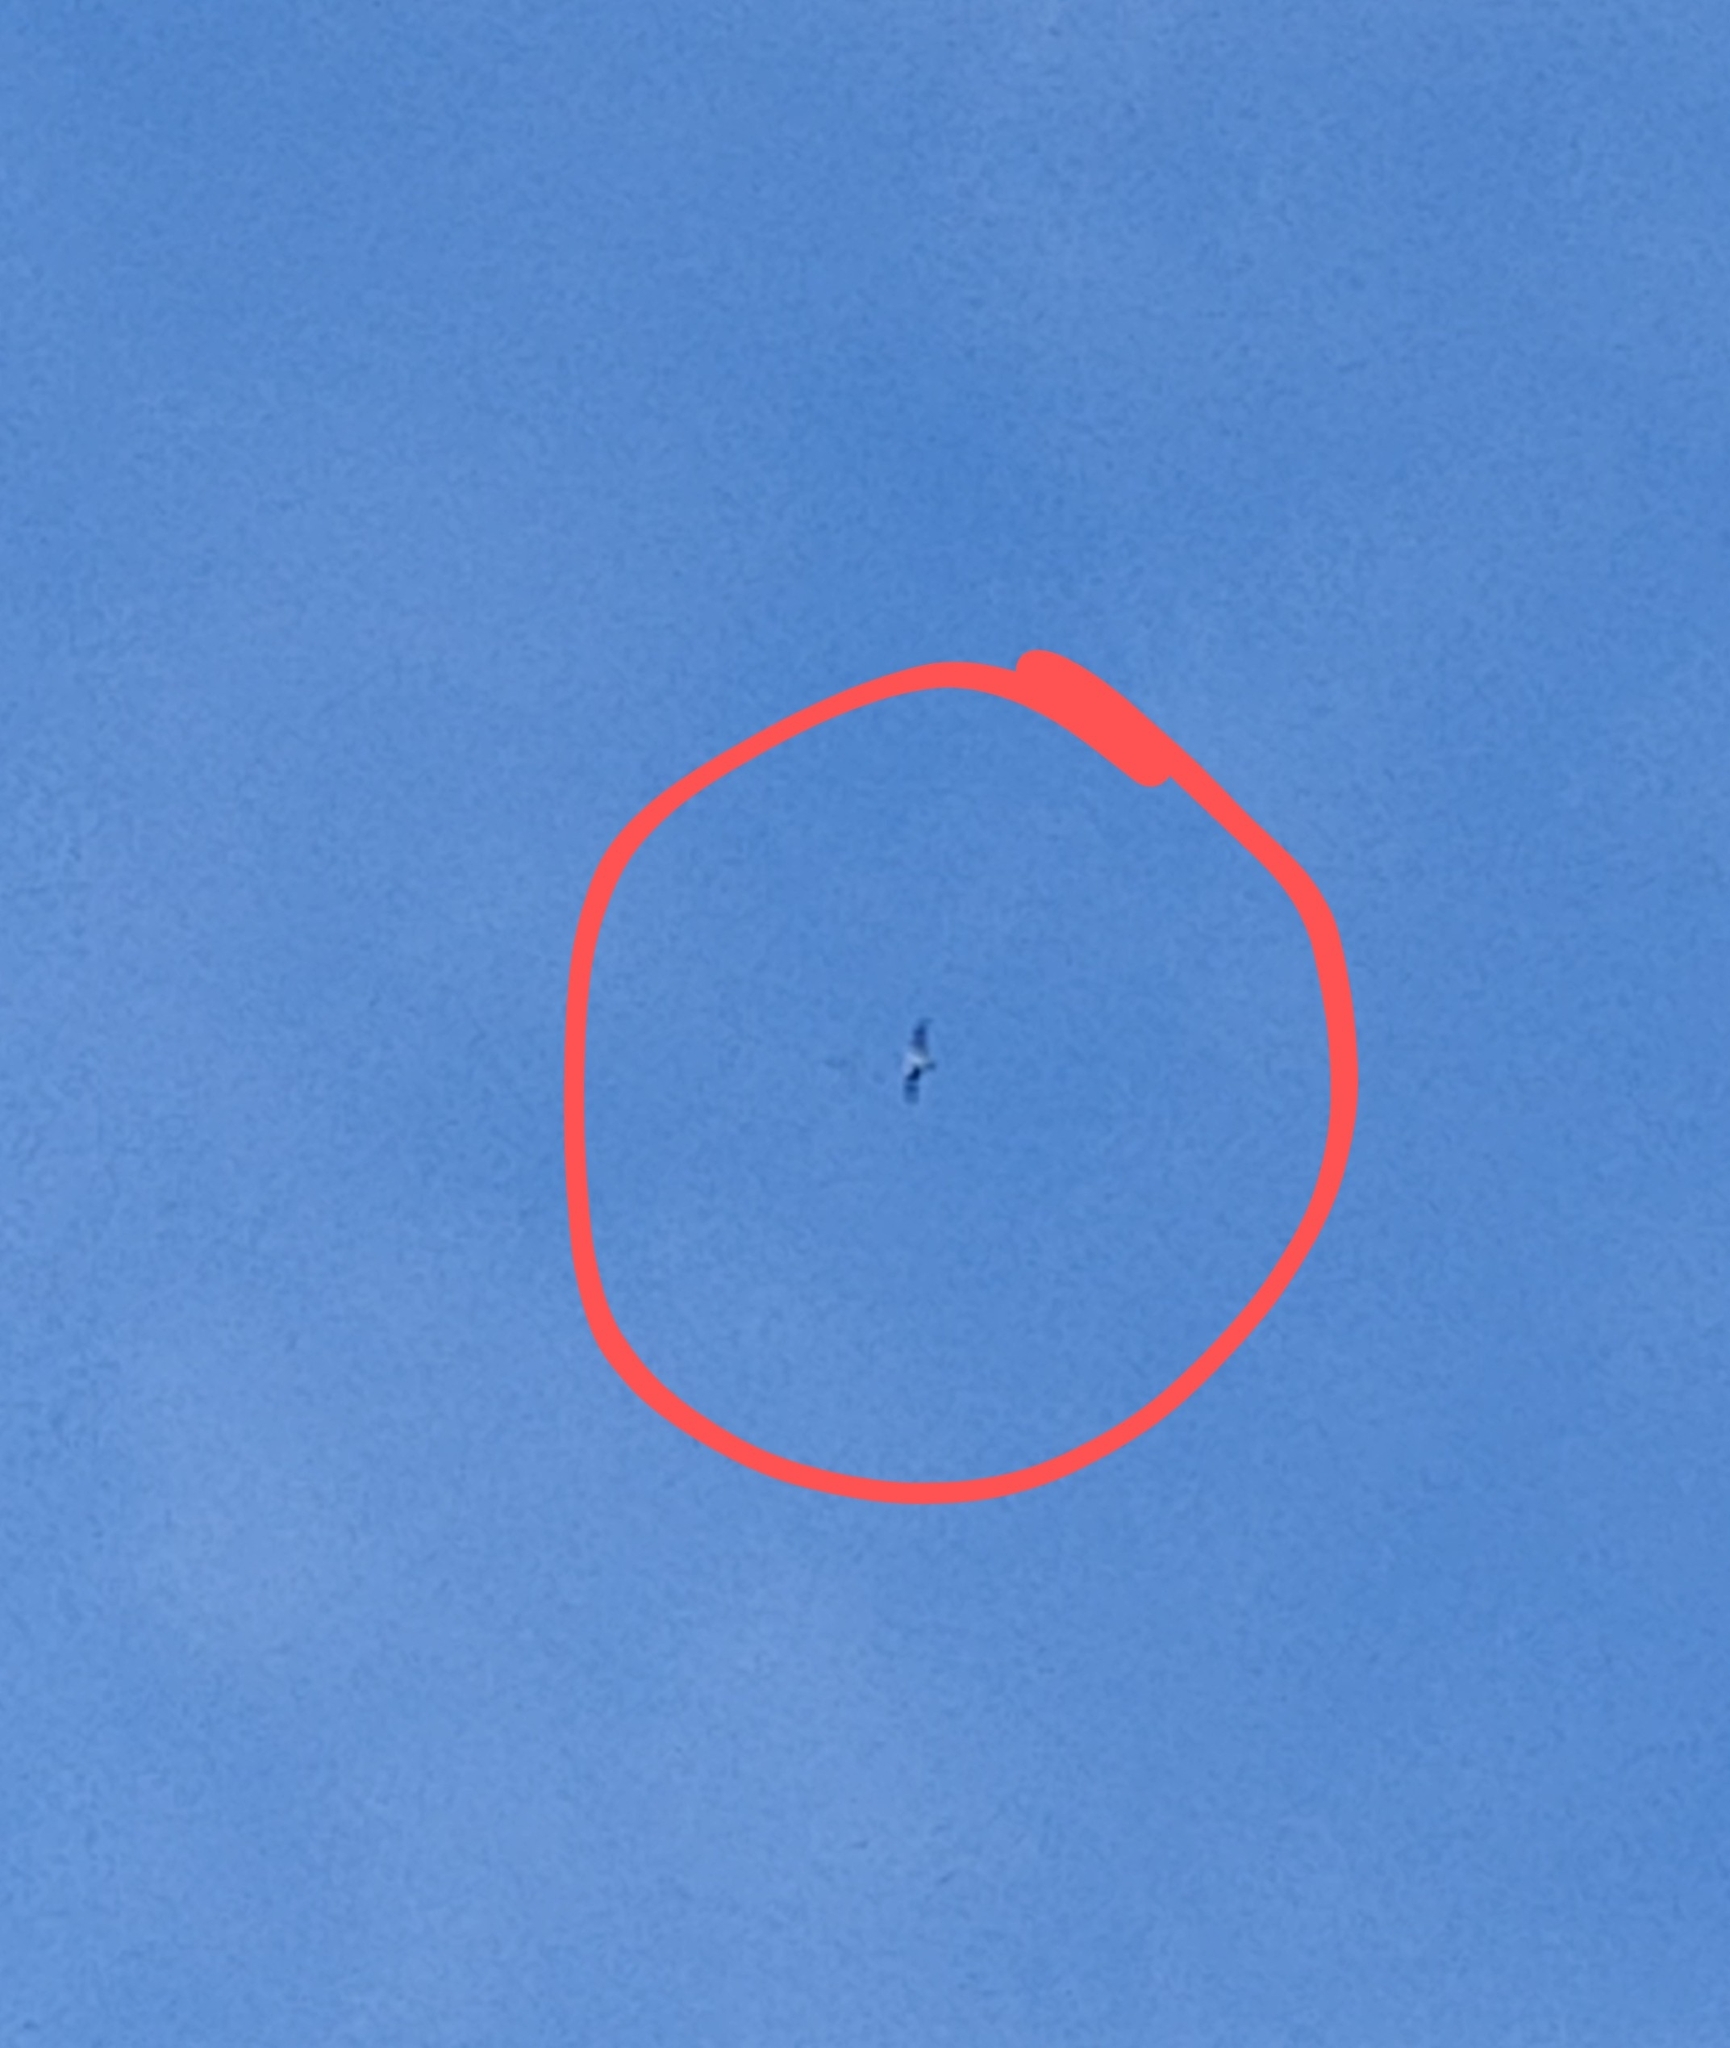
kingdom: Animalia
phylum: Chordata
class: Aves
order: Accipitriformes
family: Pandionidae
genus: Pandion
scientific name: Pandion haliaetus
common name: Osprey
